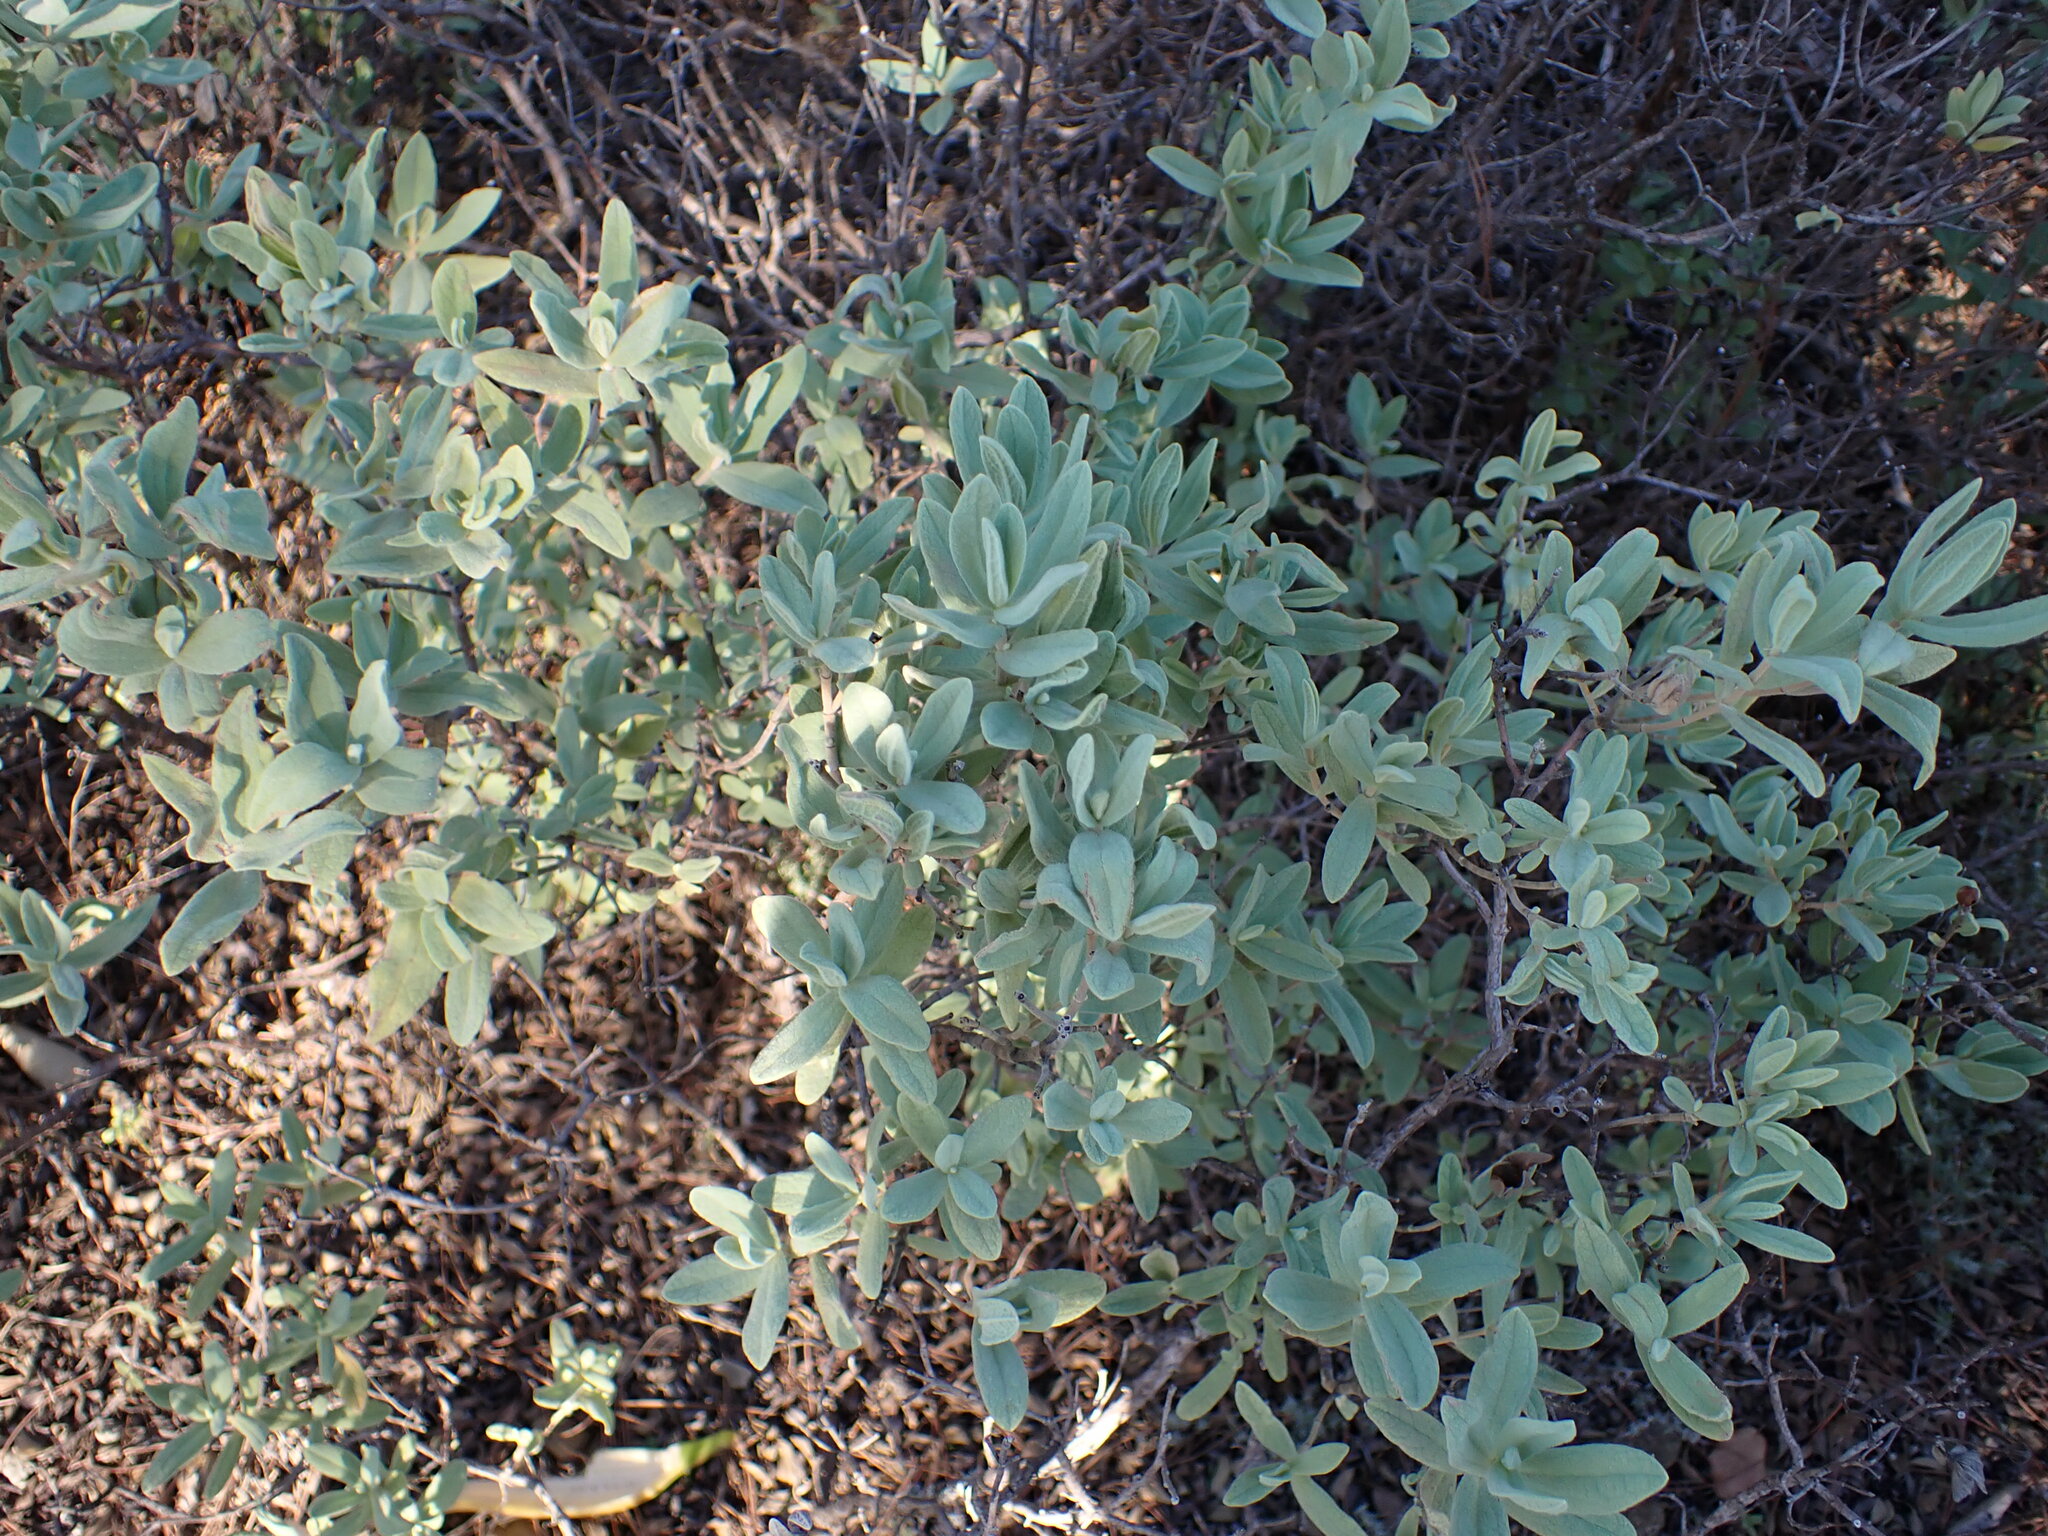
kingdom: Plantae
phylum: Tracheophyta
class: Magnoliopsida
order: Malvales
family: Cistaceae
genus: Cistus
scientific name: Cistus albidus
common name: White-leaf rock-rose
